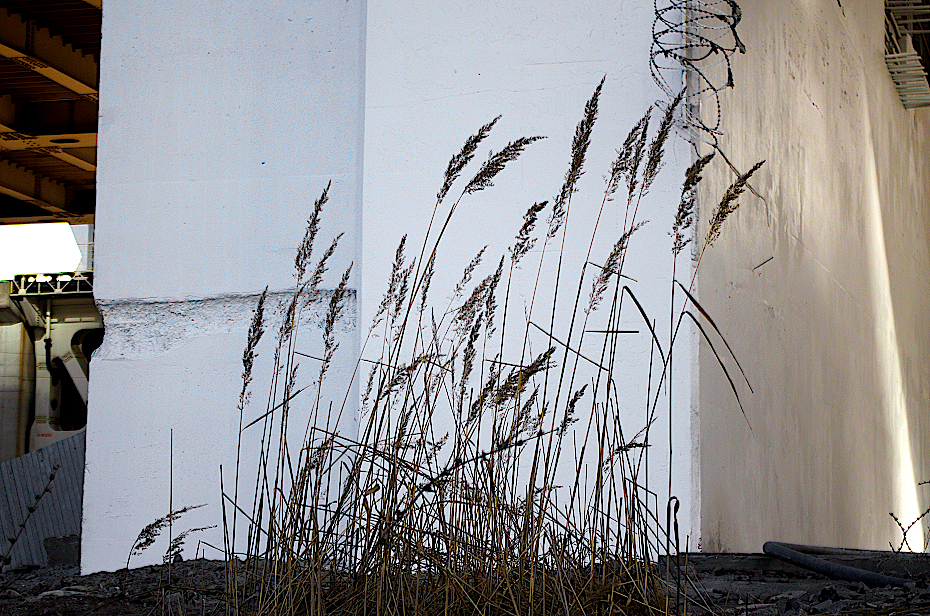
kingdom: Plantae
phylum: Tracheophyta
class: Liliopsida
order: Poales
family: Poaceae
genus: Calamagrostis
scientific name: Calamagrostis epigejos
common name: Wood small-reed
